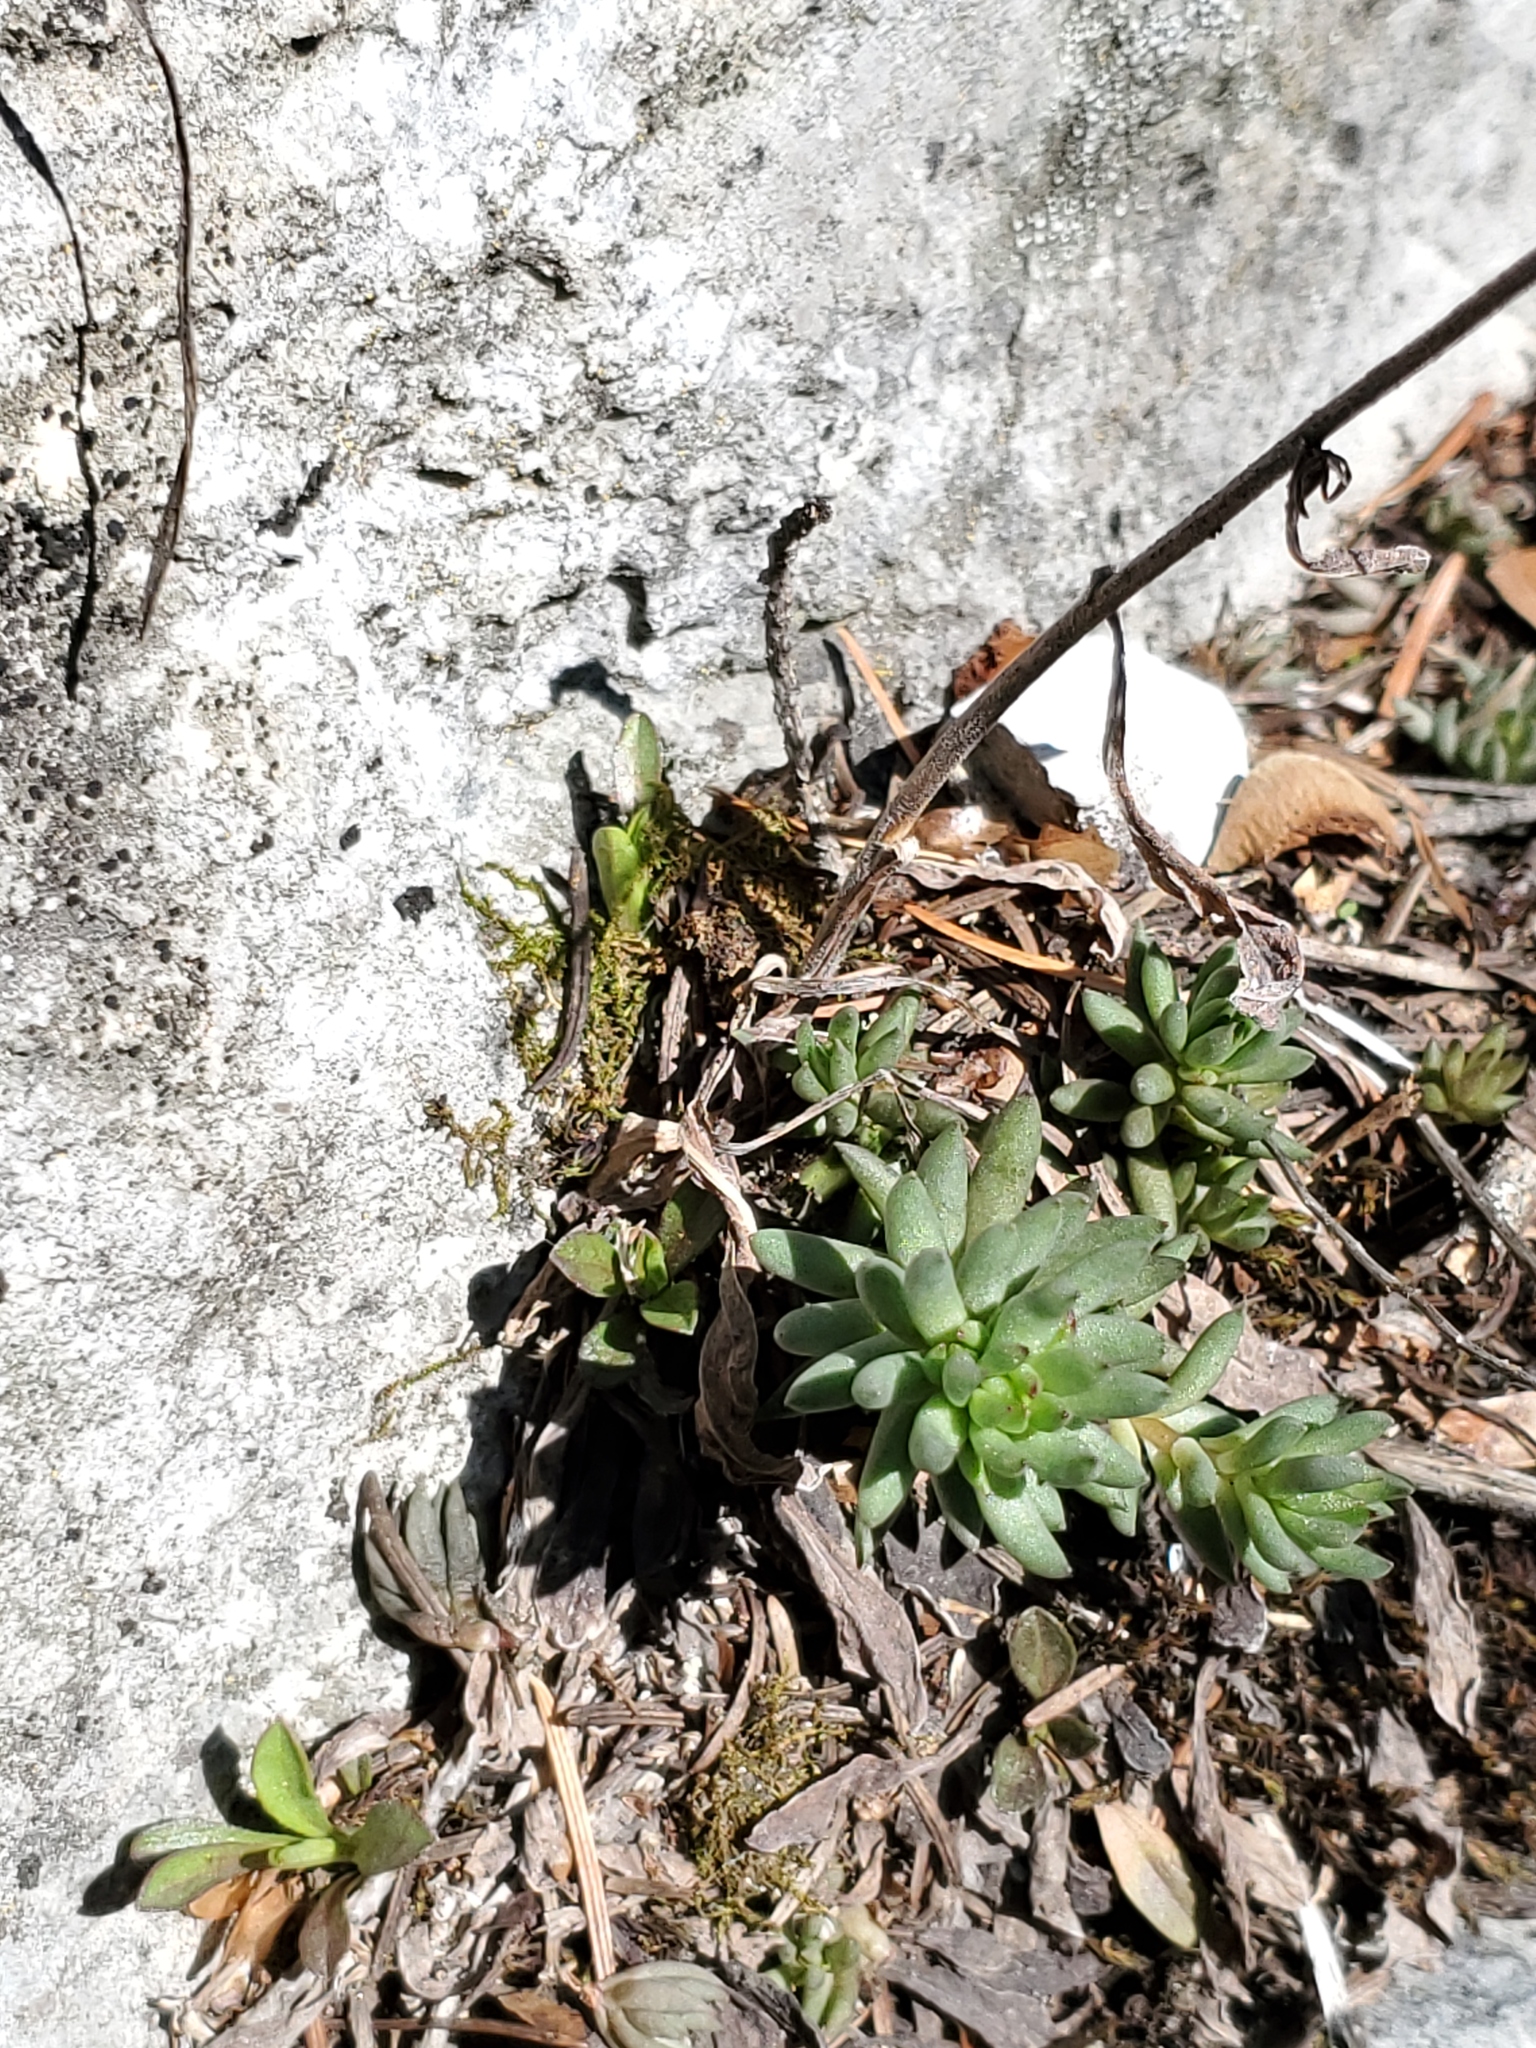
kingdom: Plantae
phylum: Tracheophyta
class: Magnoliopsida
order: Saxifragales
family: Crassulaceae
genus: Sedum
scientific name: Sedum lanceolatum
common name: Common stonecrop
